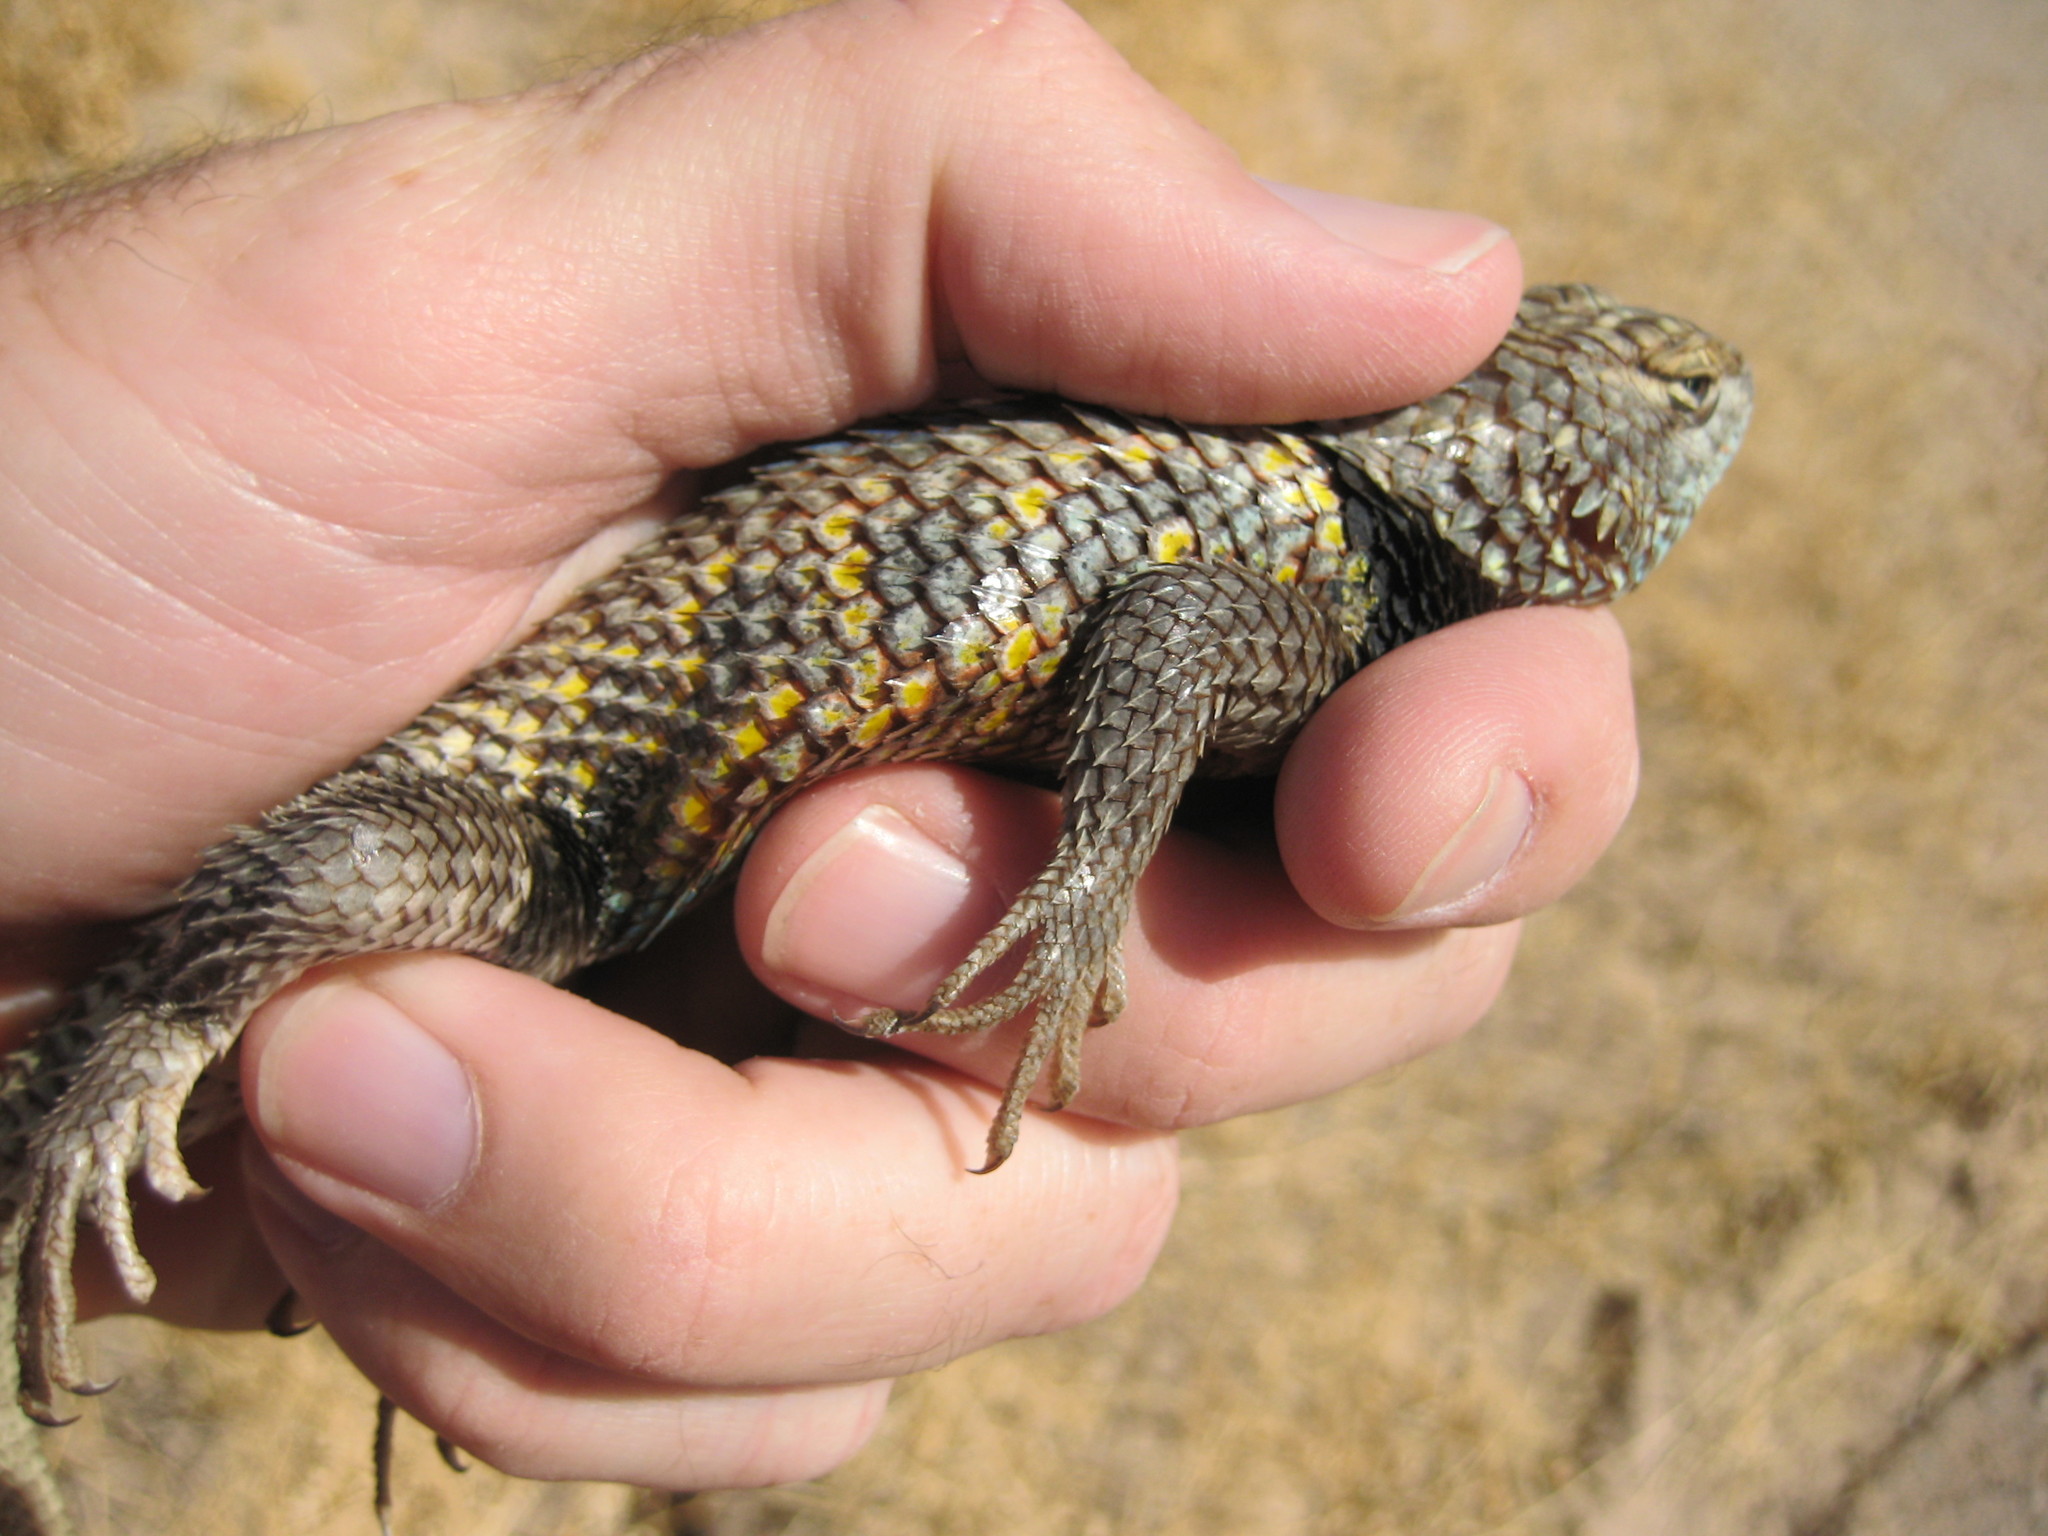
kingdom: Animalia
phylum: Chordata
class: Squamata
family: Phrynosomatidae
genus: Sceloporus
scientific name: Sceloporus magister
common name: Desert spiny lizard
